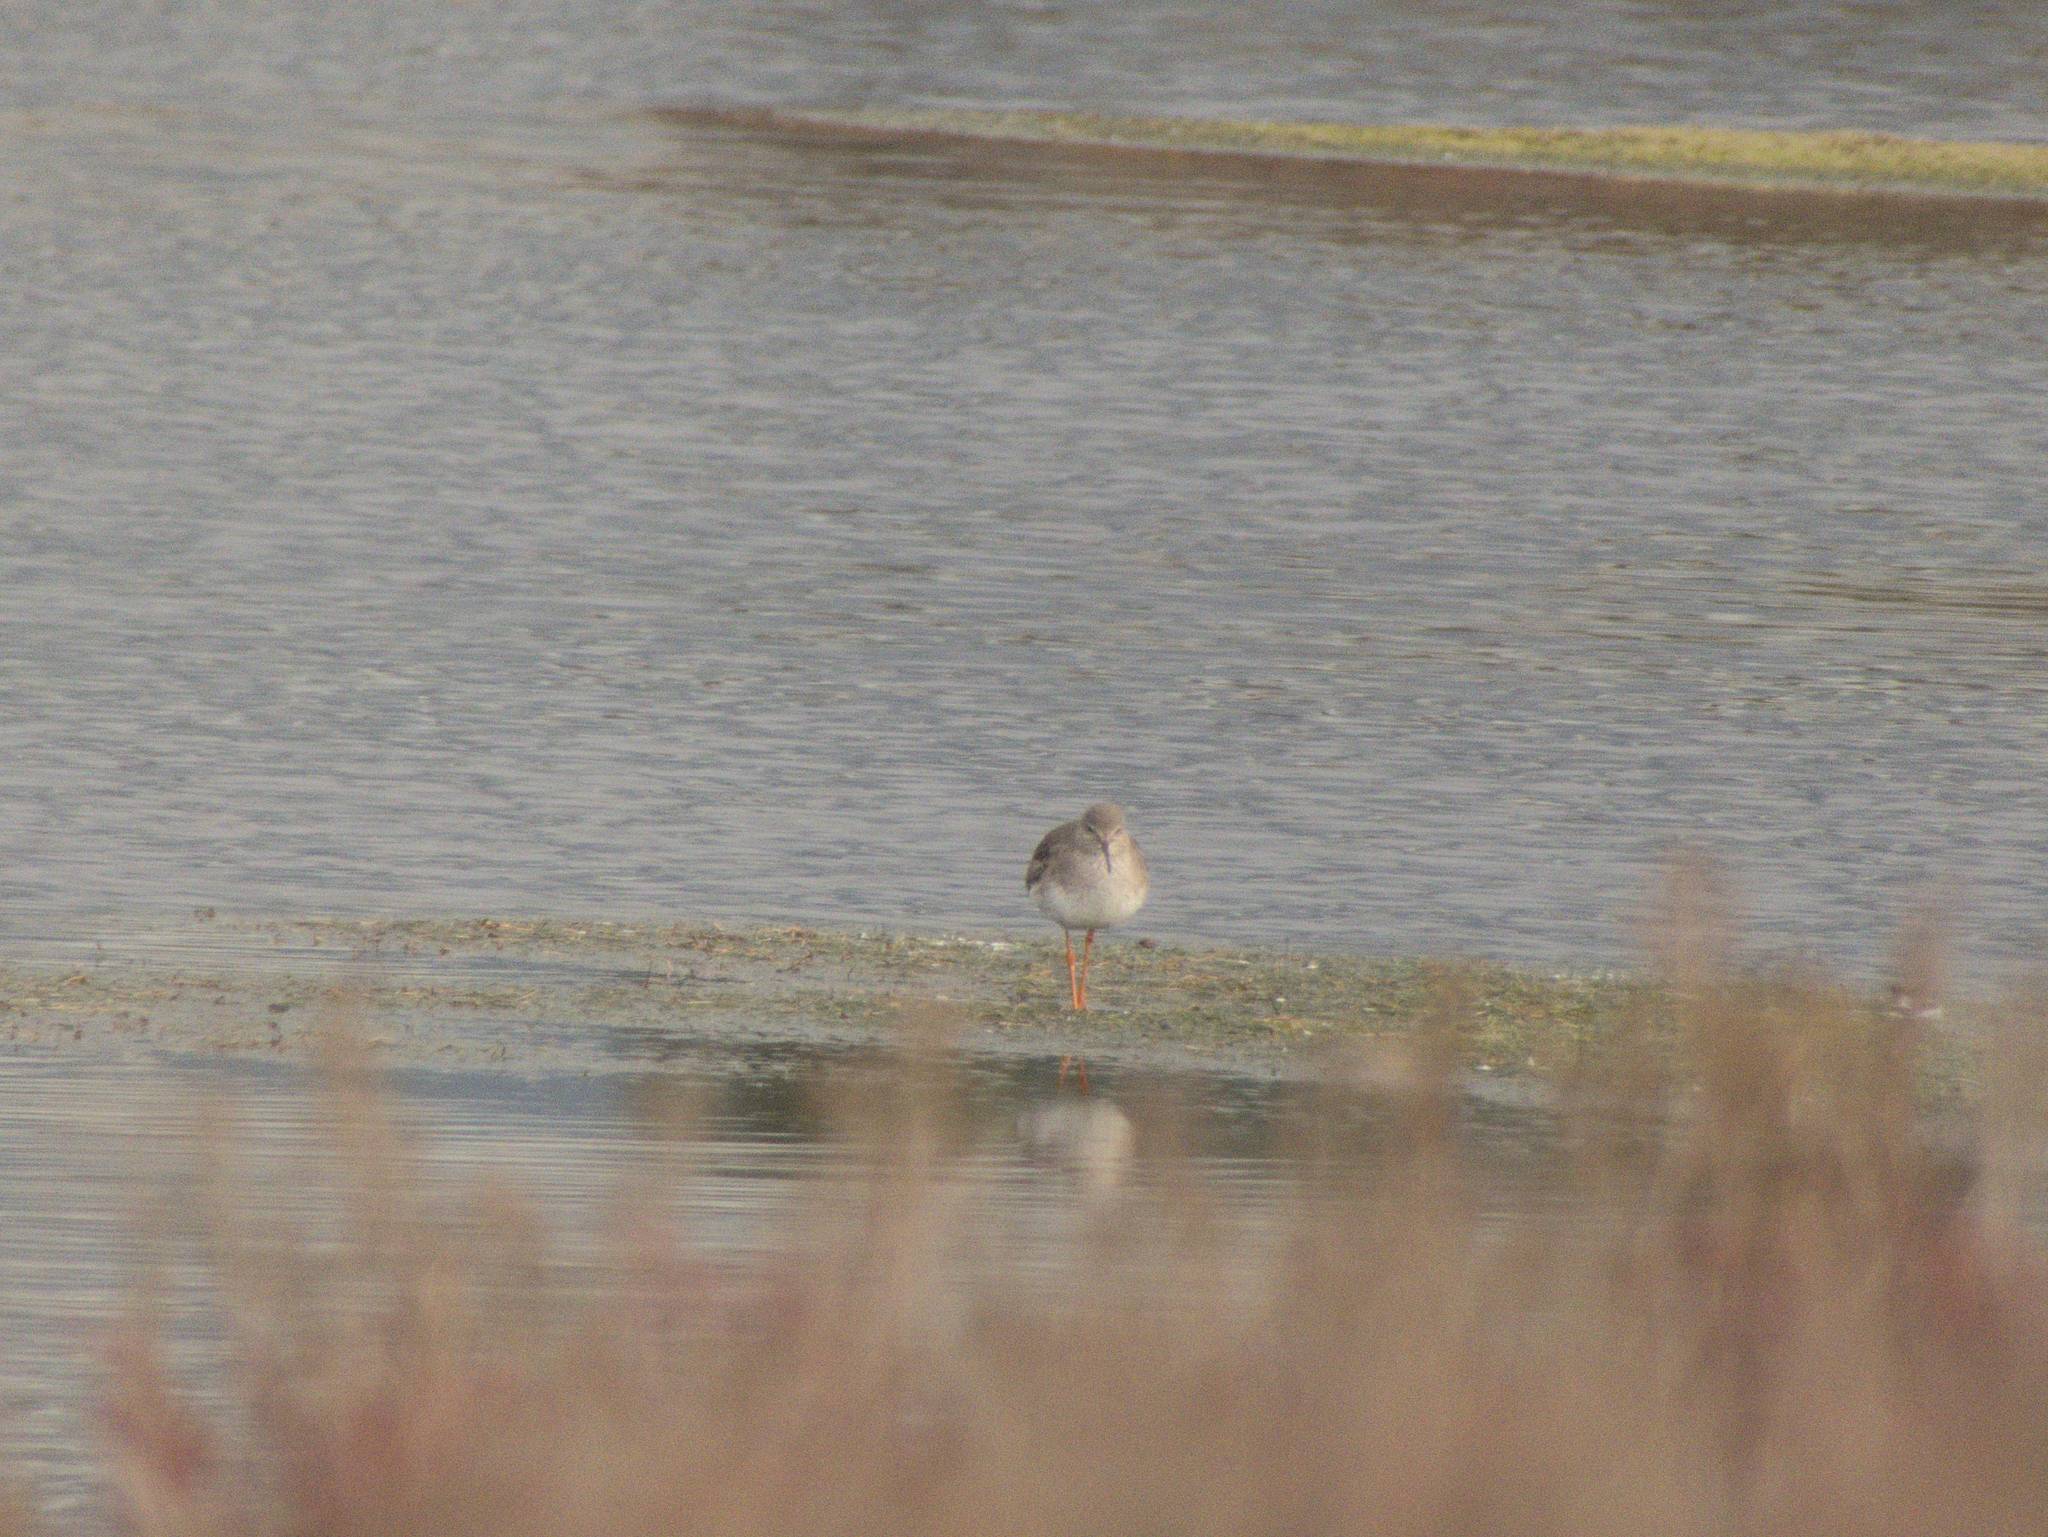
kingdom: Animalia
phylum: Chordata
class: Aves
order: Charadriiformes
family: Scolopacidae
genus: Tringa
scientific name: Tringa totanus
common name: Common redshank
